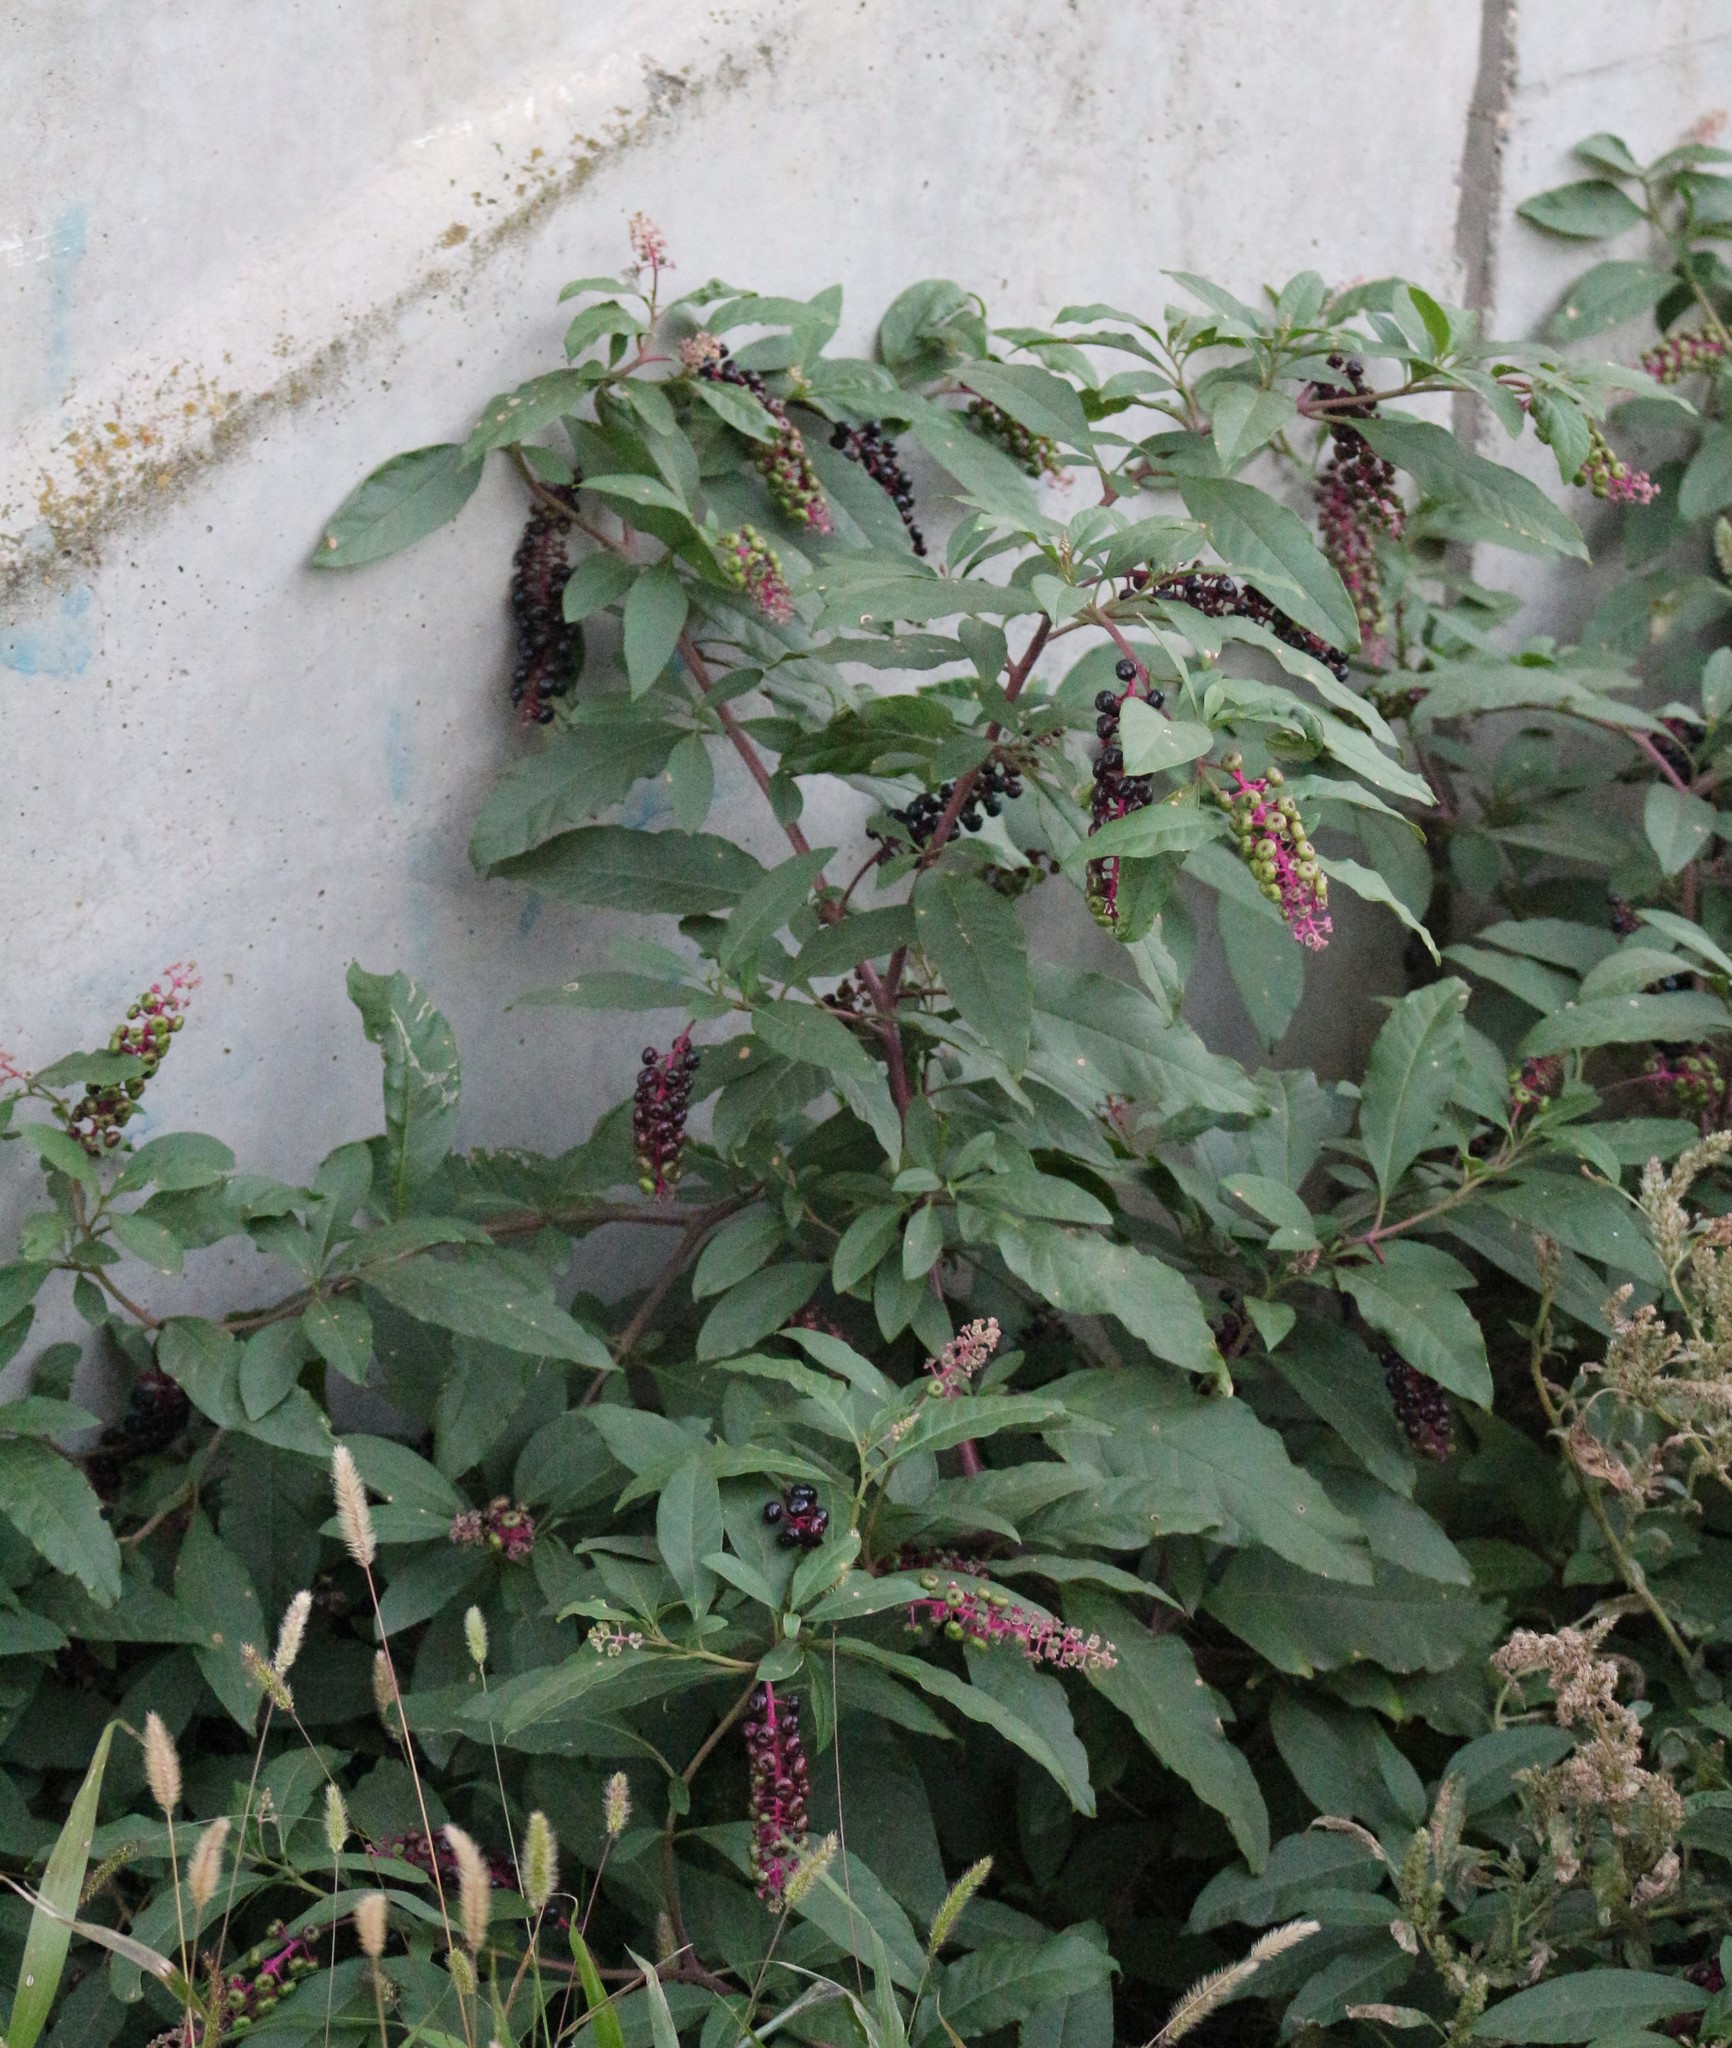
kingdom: Plantae
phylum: Tracheophyta
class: Magnoliopsida
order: Caryophyllales
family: Phytolaccaceae
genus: Phytolacca
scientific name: Phytolacca americana
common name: American pokeweed
